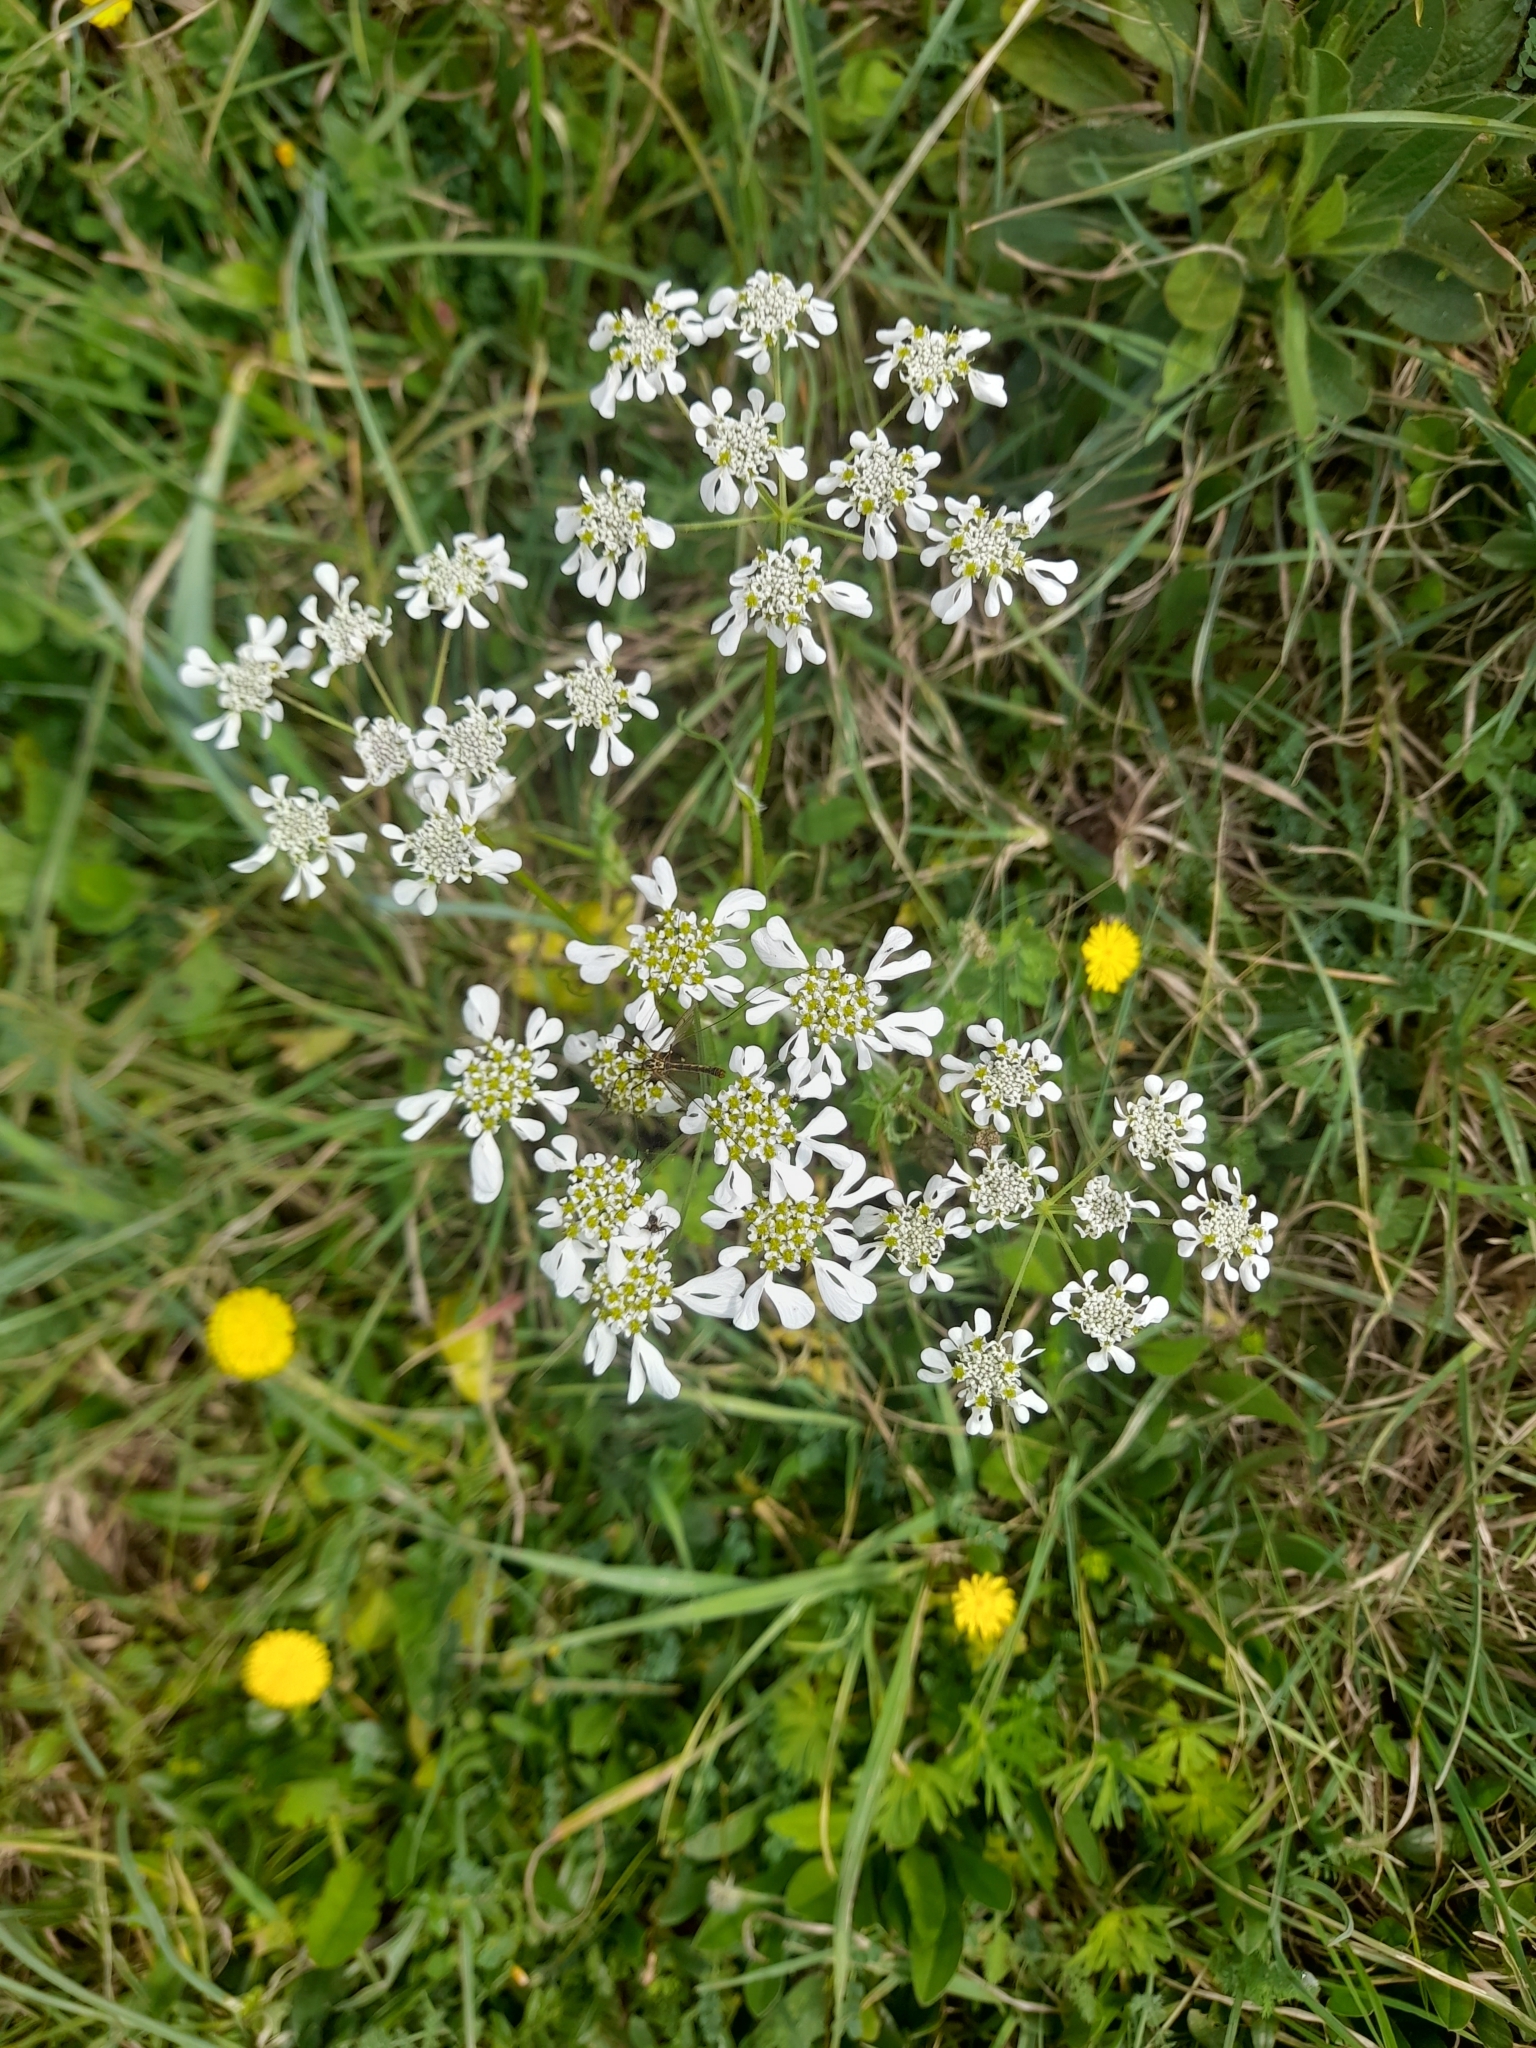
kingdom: Plantae
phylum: Tracheophyta
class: Magnoliopsida
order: Apiales
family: Apiaceae
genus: Tordylium
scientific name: Tordylium apulum
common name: Mediterranean hartwort
